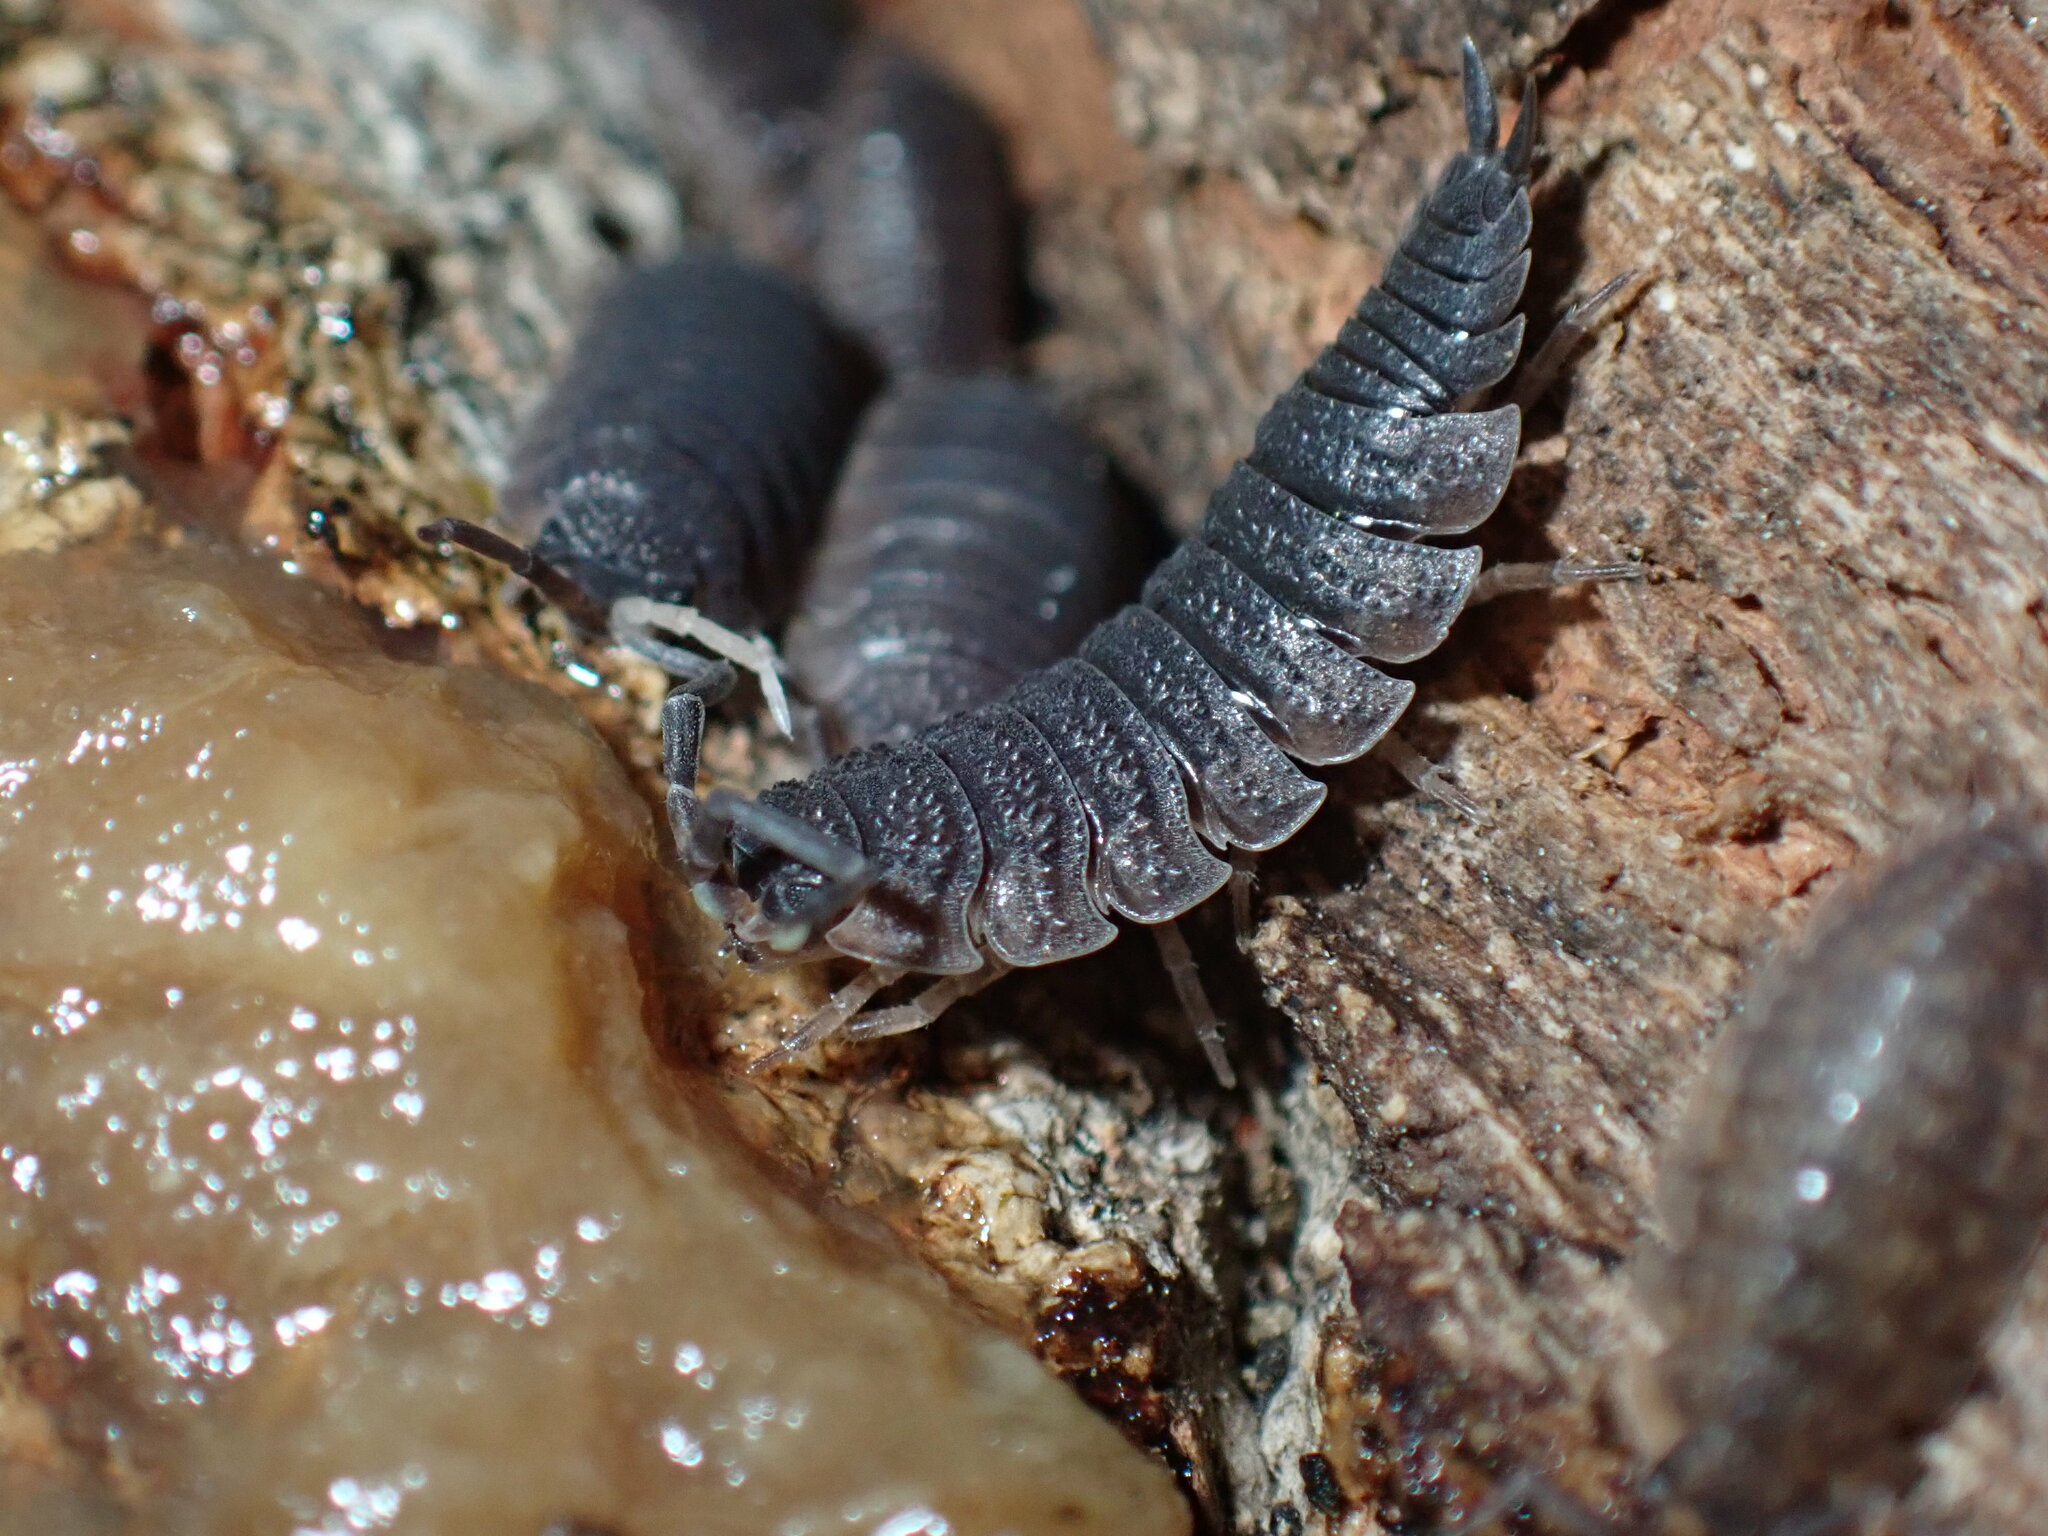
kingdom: Animalia
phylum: Arthropoda
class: Malacostraca
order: Isopoda
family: Porcellionidae
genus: Porcellio
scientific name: Porcellio scaber
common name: Common rough woodlouse
